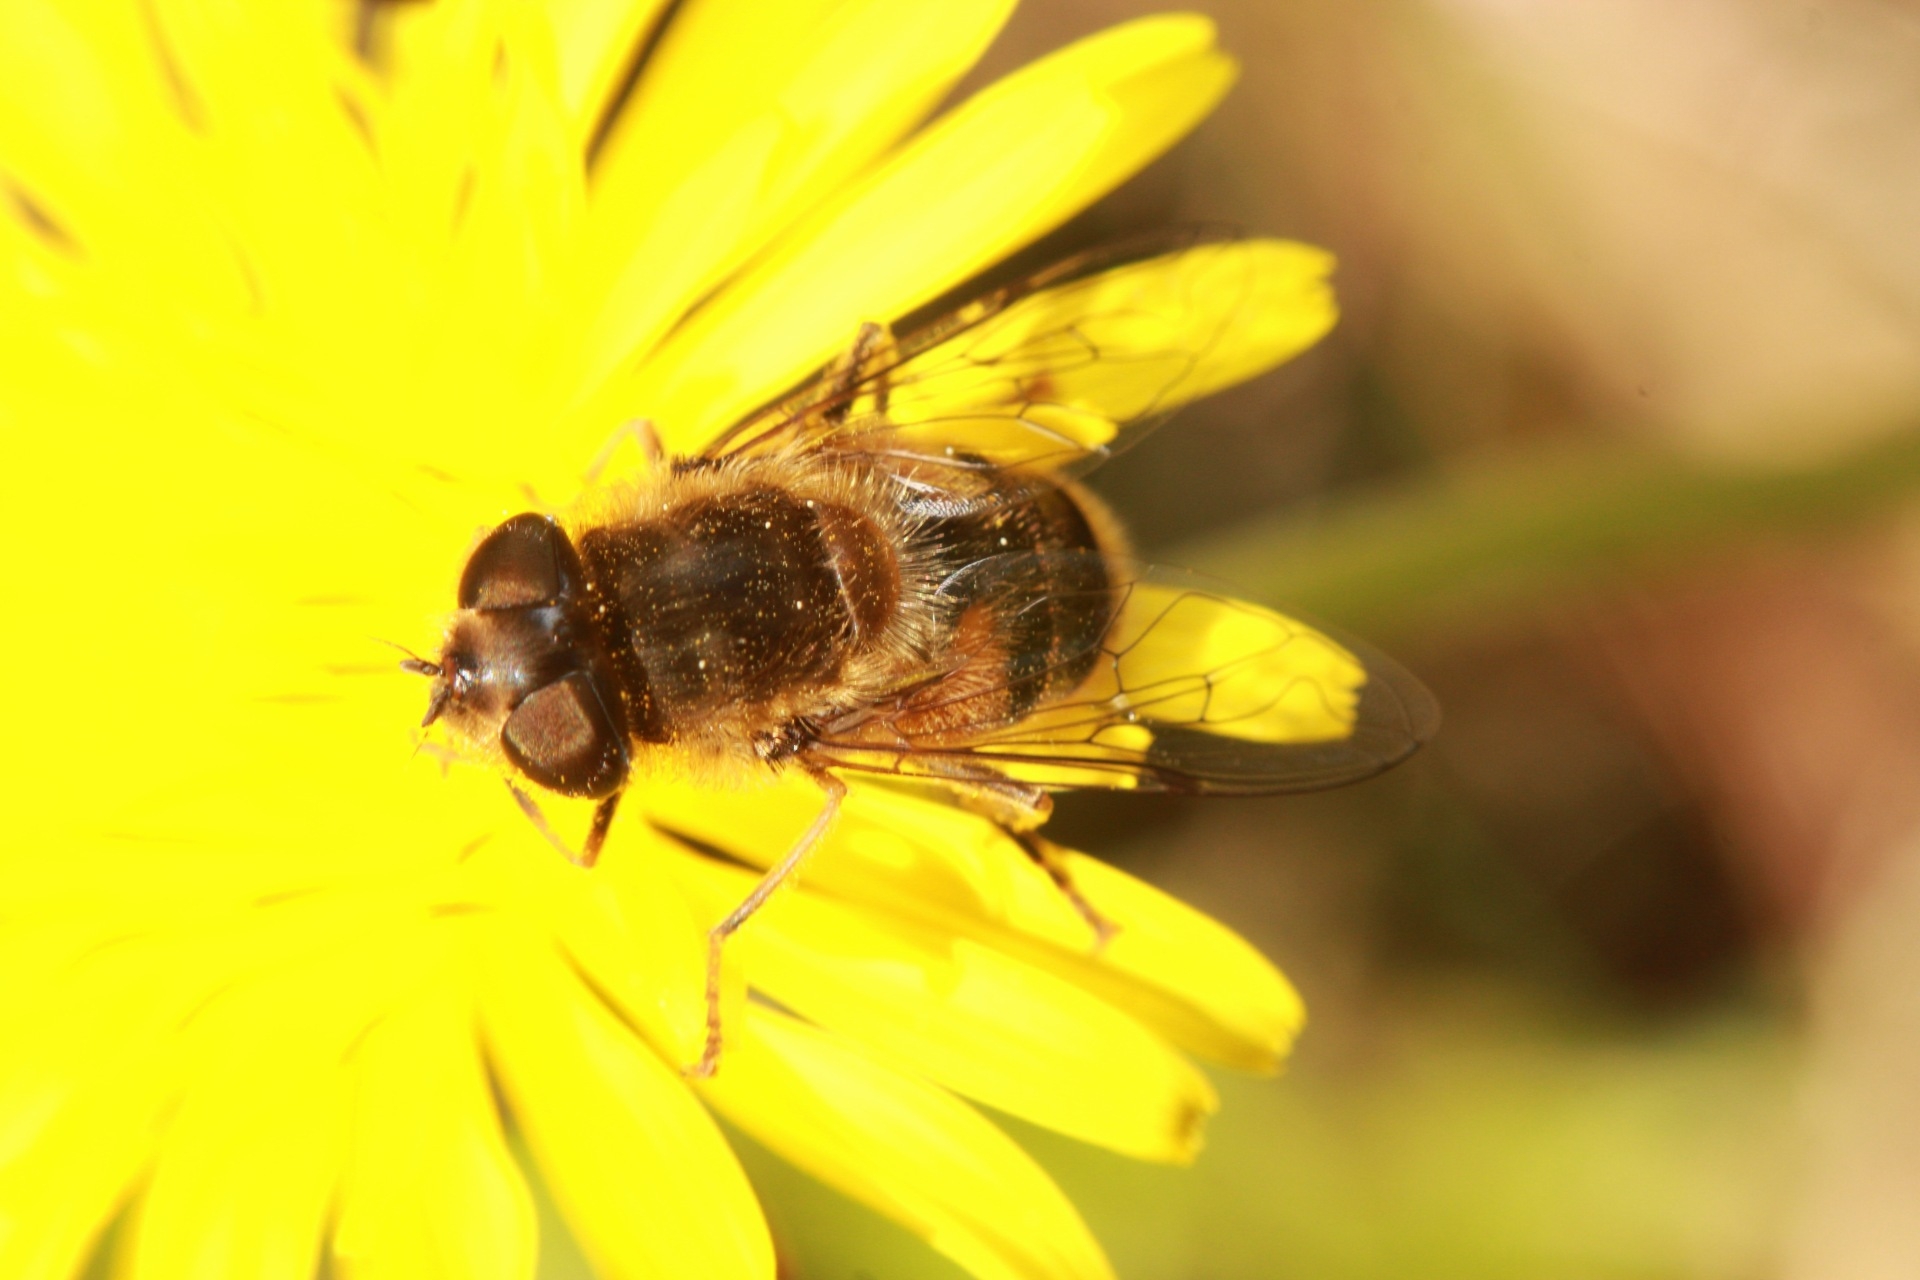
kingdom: Animalia
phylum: Arthropoda
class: Insecta
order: Diptera
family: Syrphidae
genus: Eristalis
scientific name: Eristalis pertinax
